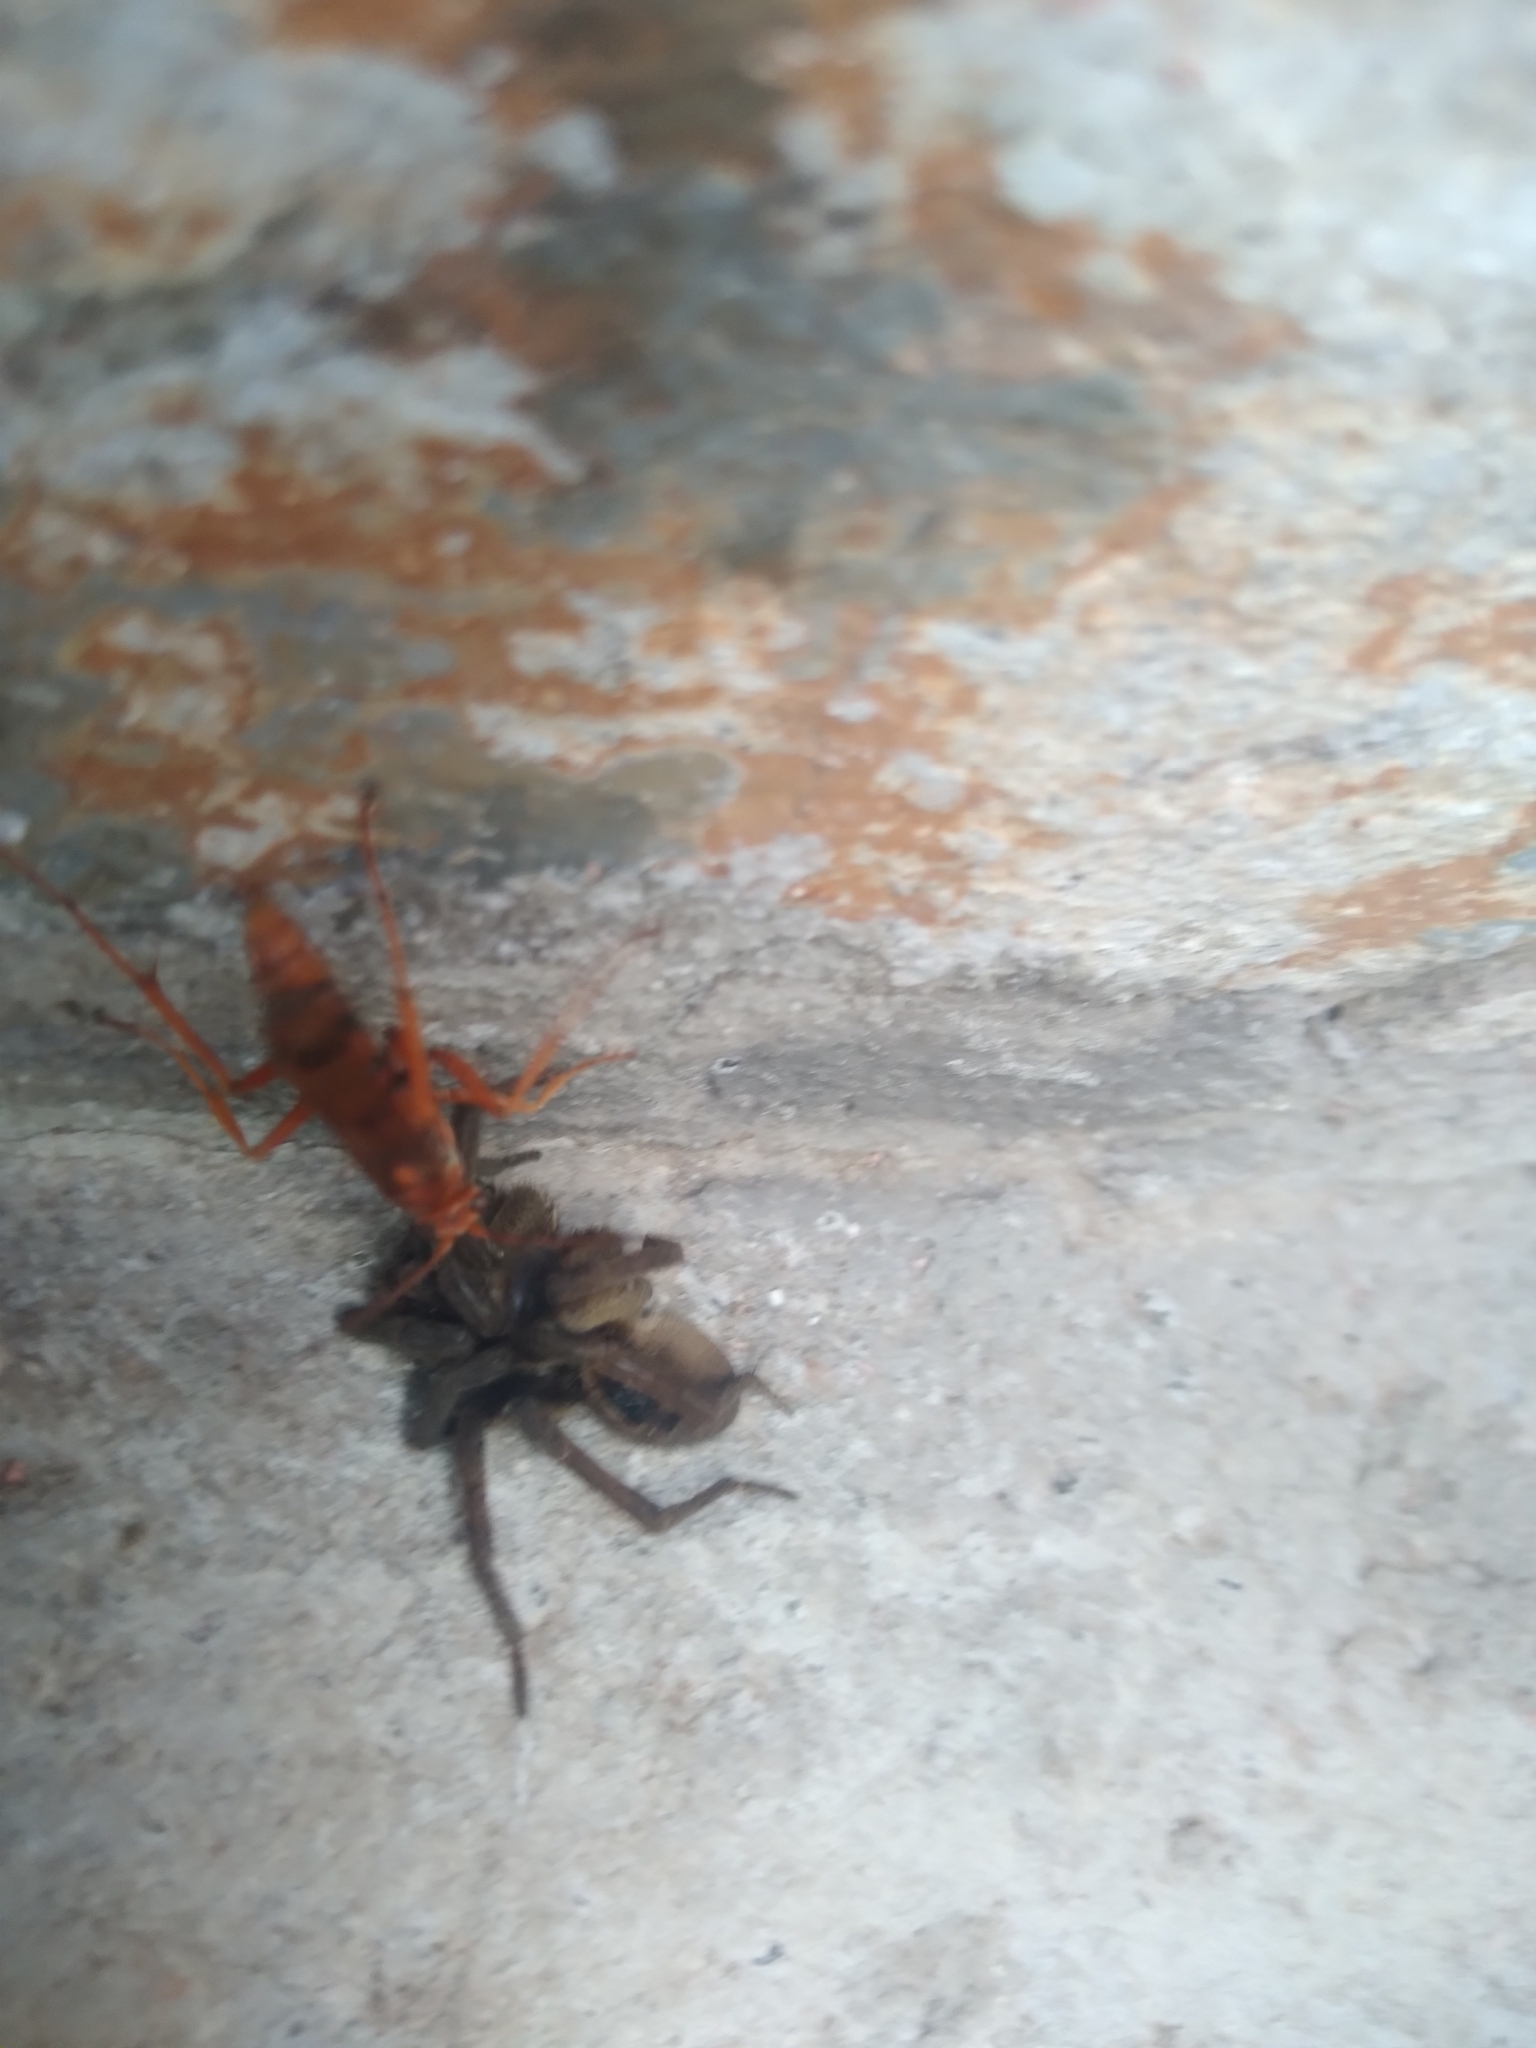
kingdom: Animalia
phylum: Arthropoda
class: Insecta
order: Hymenoptera
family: Pompilidae
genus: Tachypompilus
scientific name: Tachypompilus mendozae
